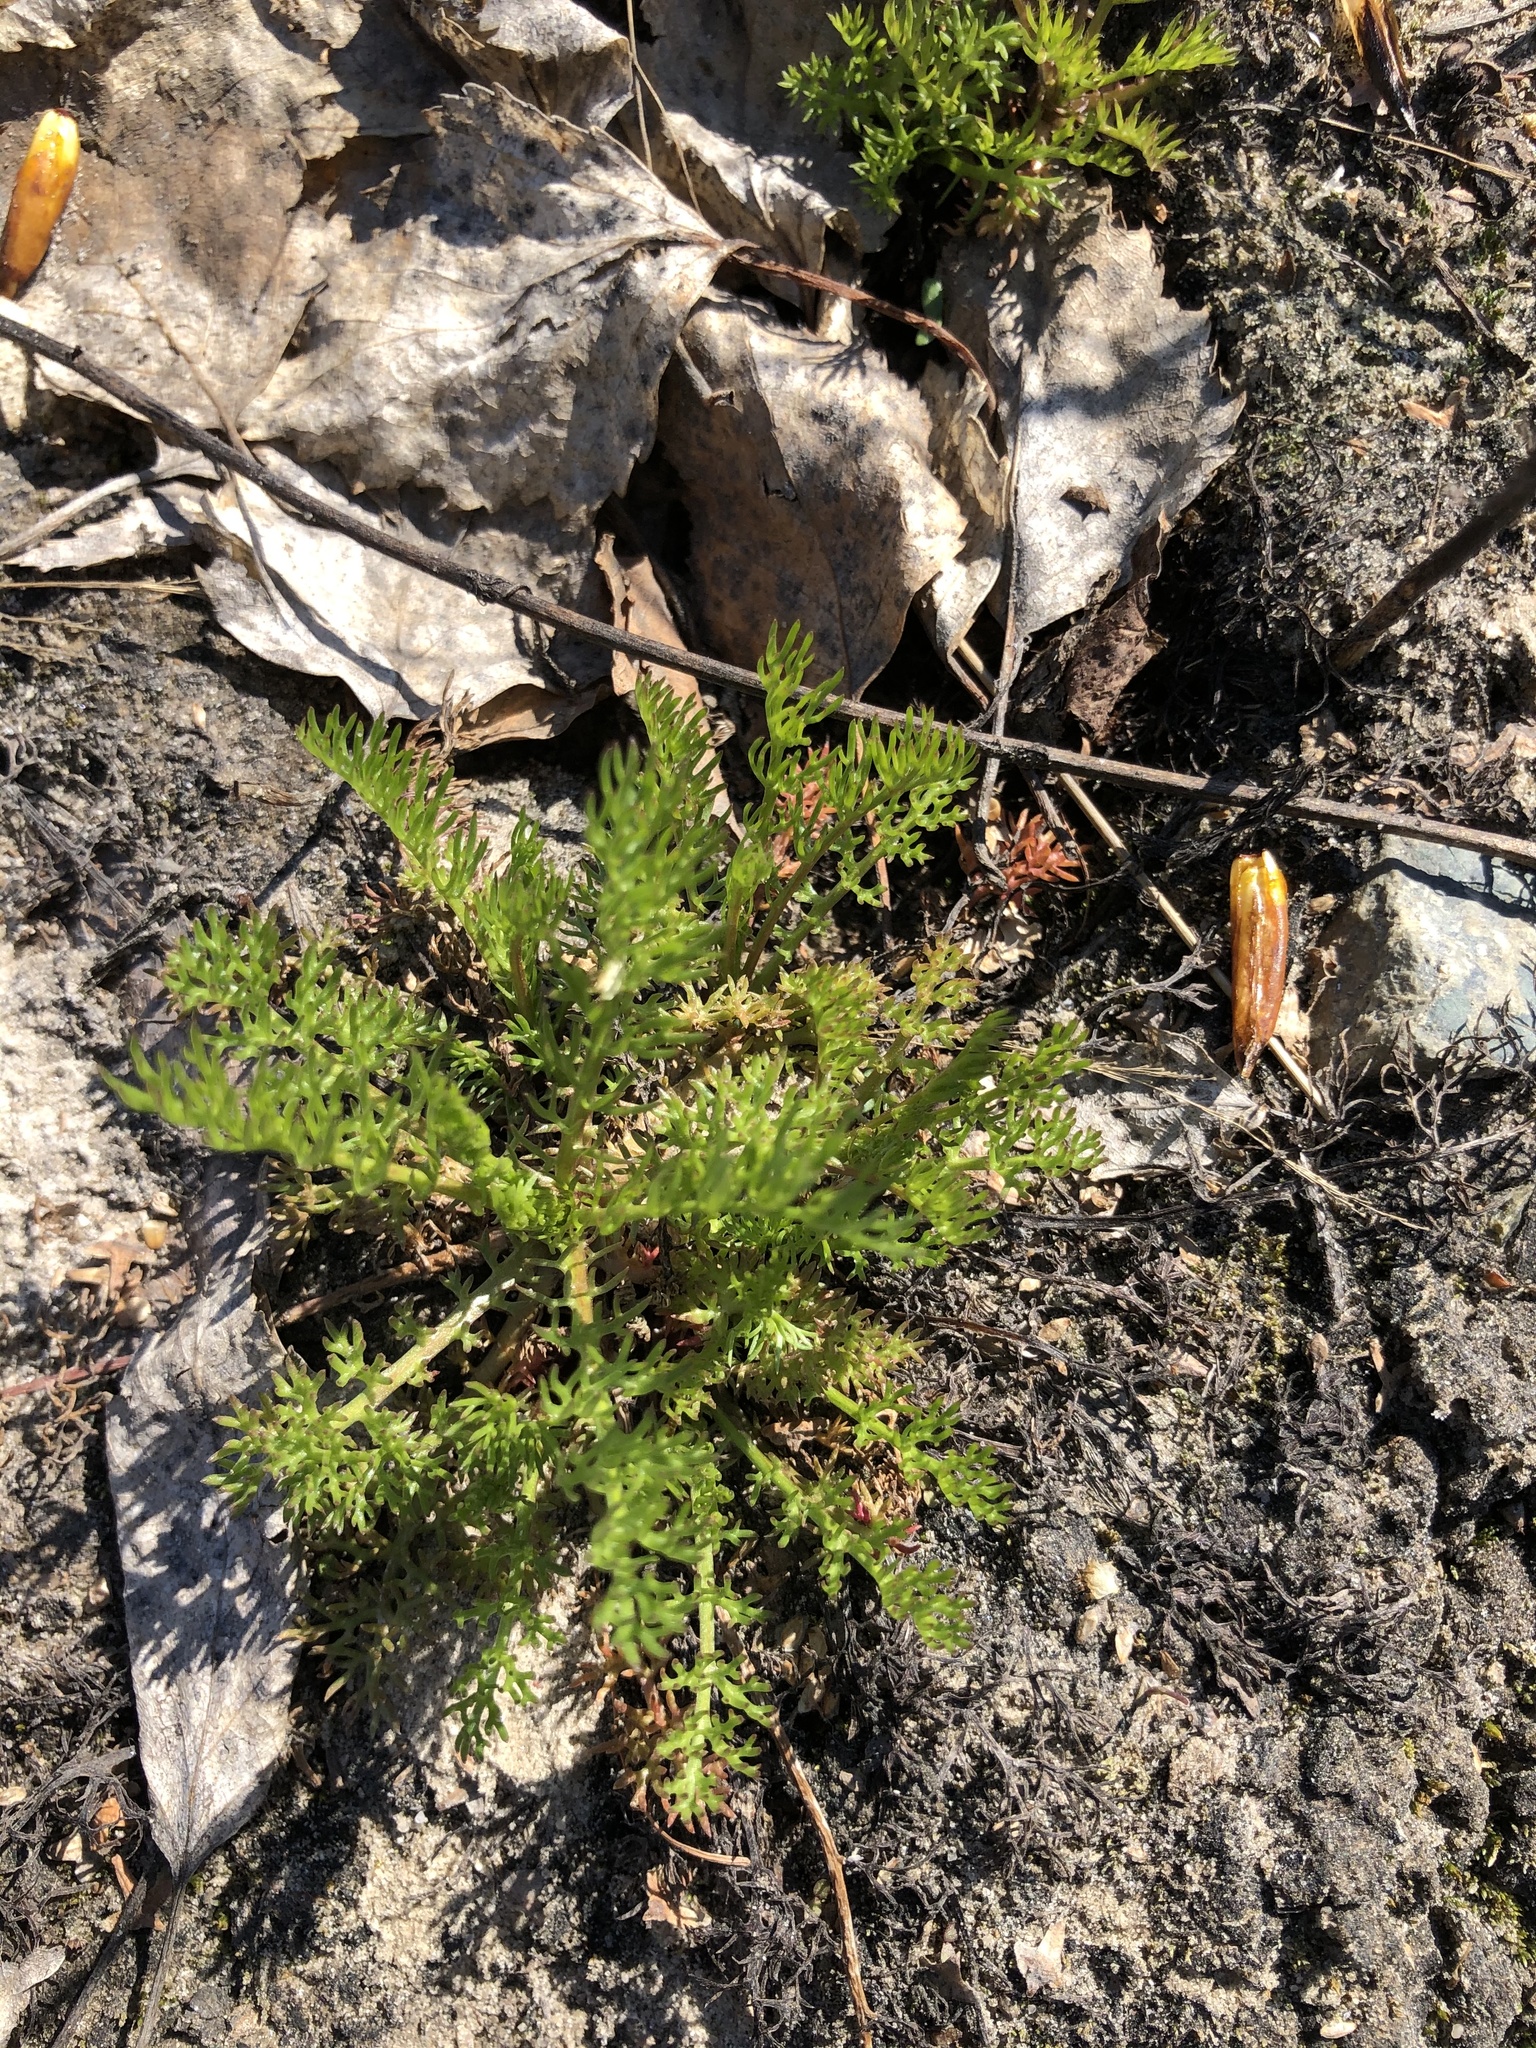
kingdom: Plantae
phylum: Tracheophyta
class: Magnoliopsida
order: Asterales
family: Asteraceae
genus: Tripleurospermum
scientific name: Tripleurospermum inodorum
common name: Scentless mayweed
